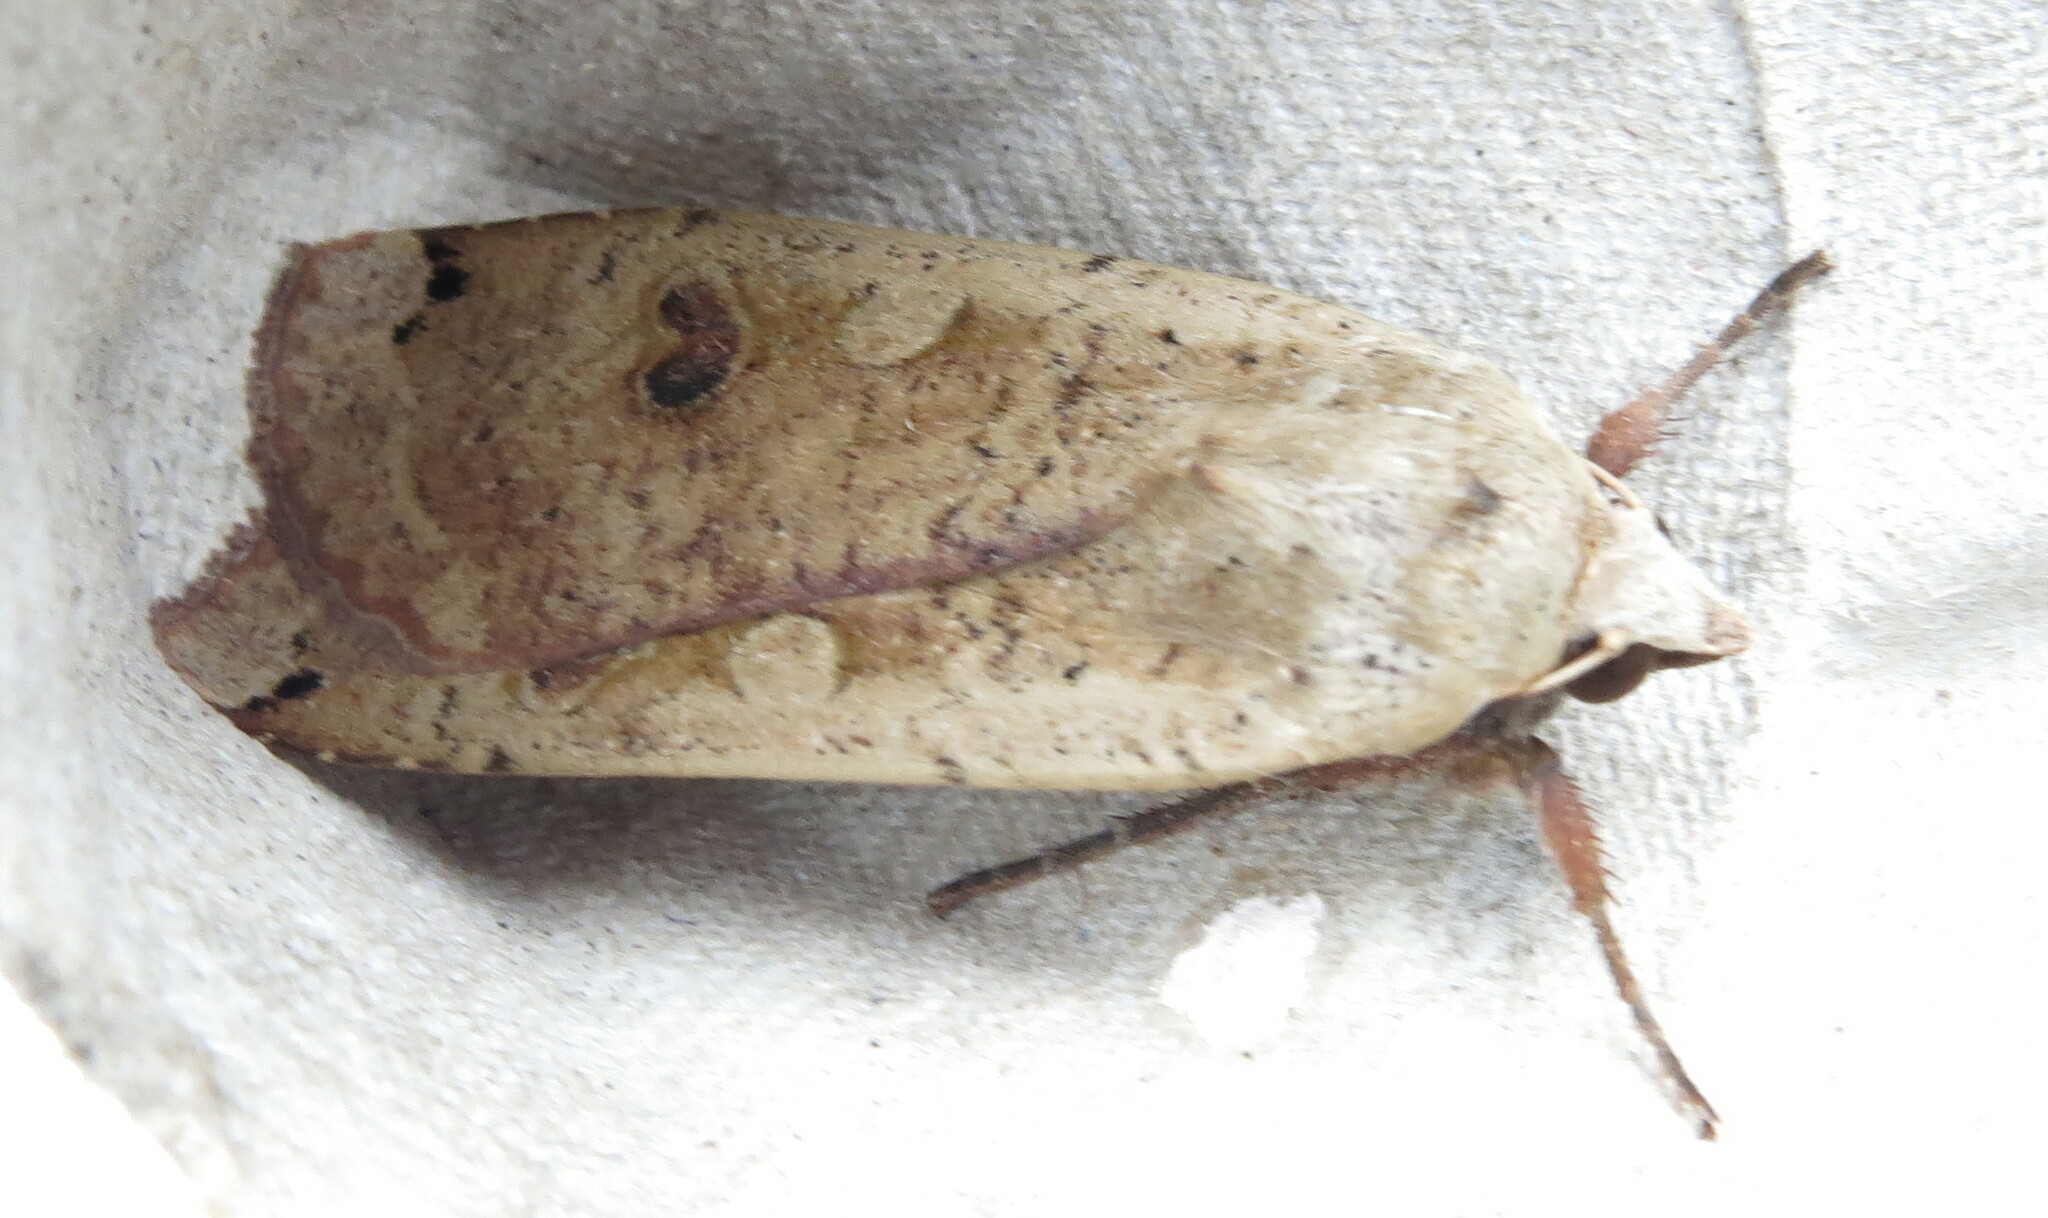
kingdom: Animalia
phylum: Arthropoda
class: Insecta
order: Lepidoptera
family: Noctuidae
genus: Noctua
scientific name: Noctua pronuba
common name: Large yellow underwing
